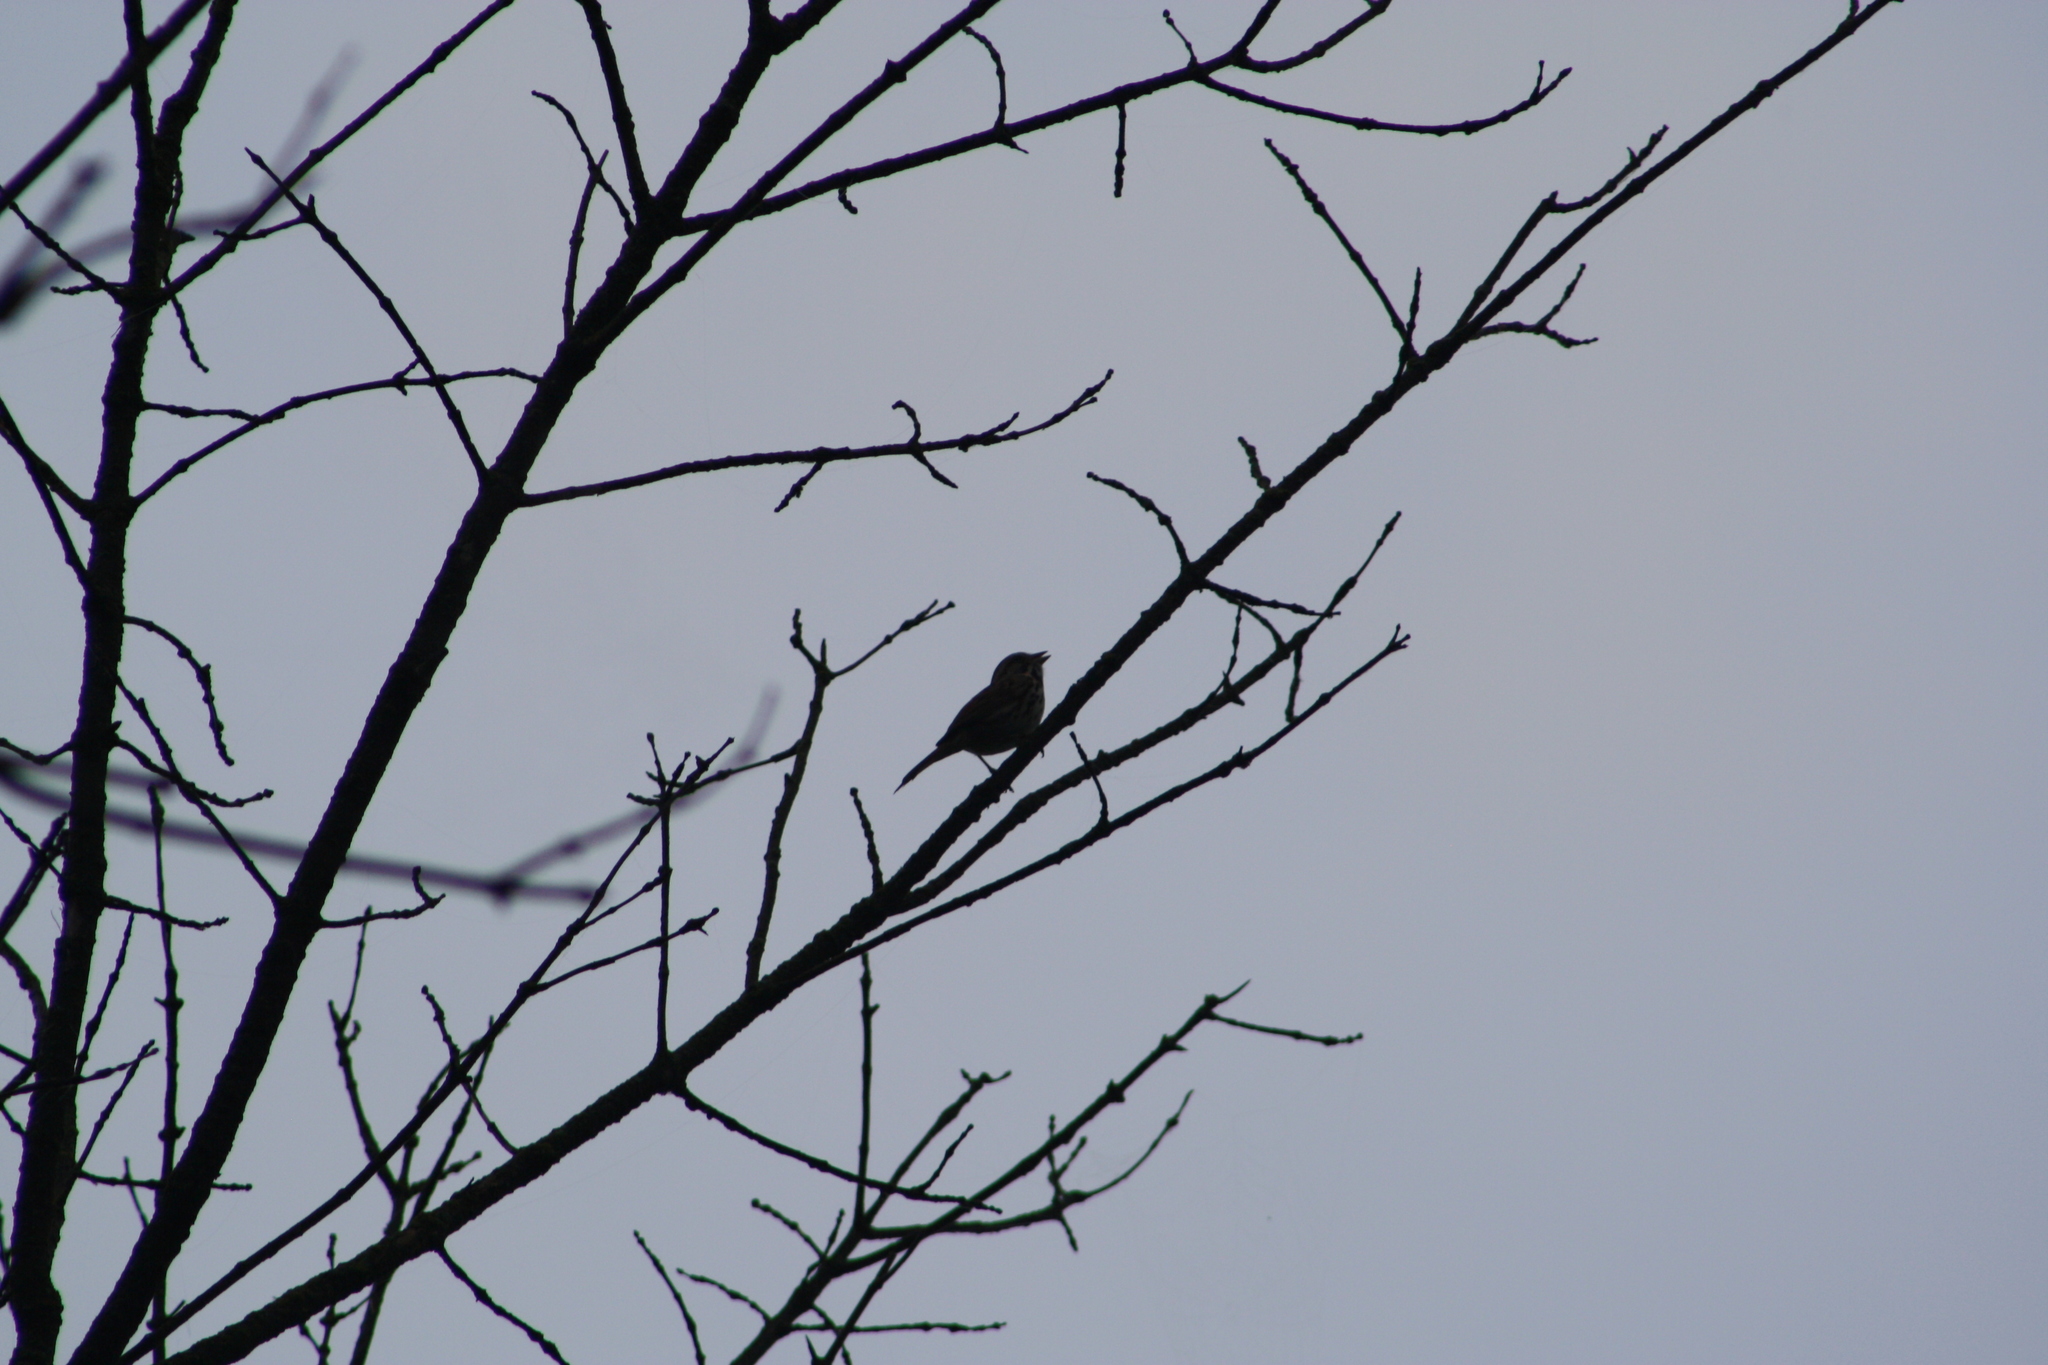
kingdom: Animalia
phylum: Chordata
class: Aves
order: Passeriformes
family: Passerellidae
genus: Melospiza
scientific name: Melospiza melodia
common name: Song sparrow
